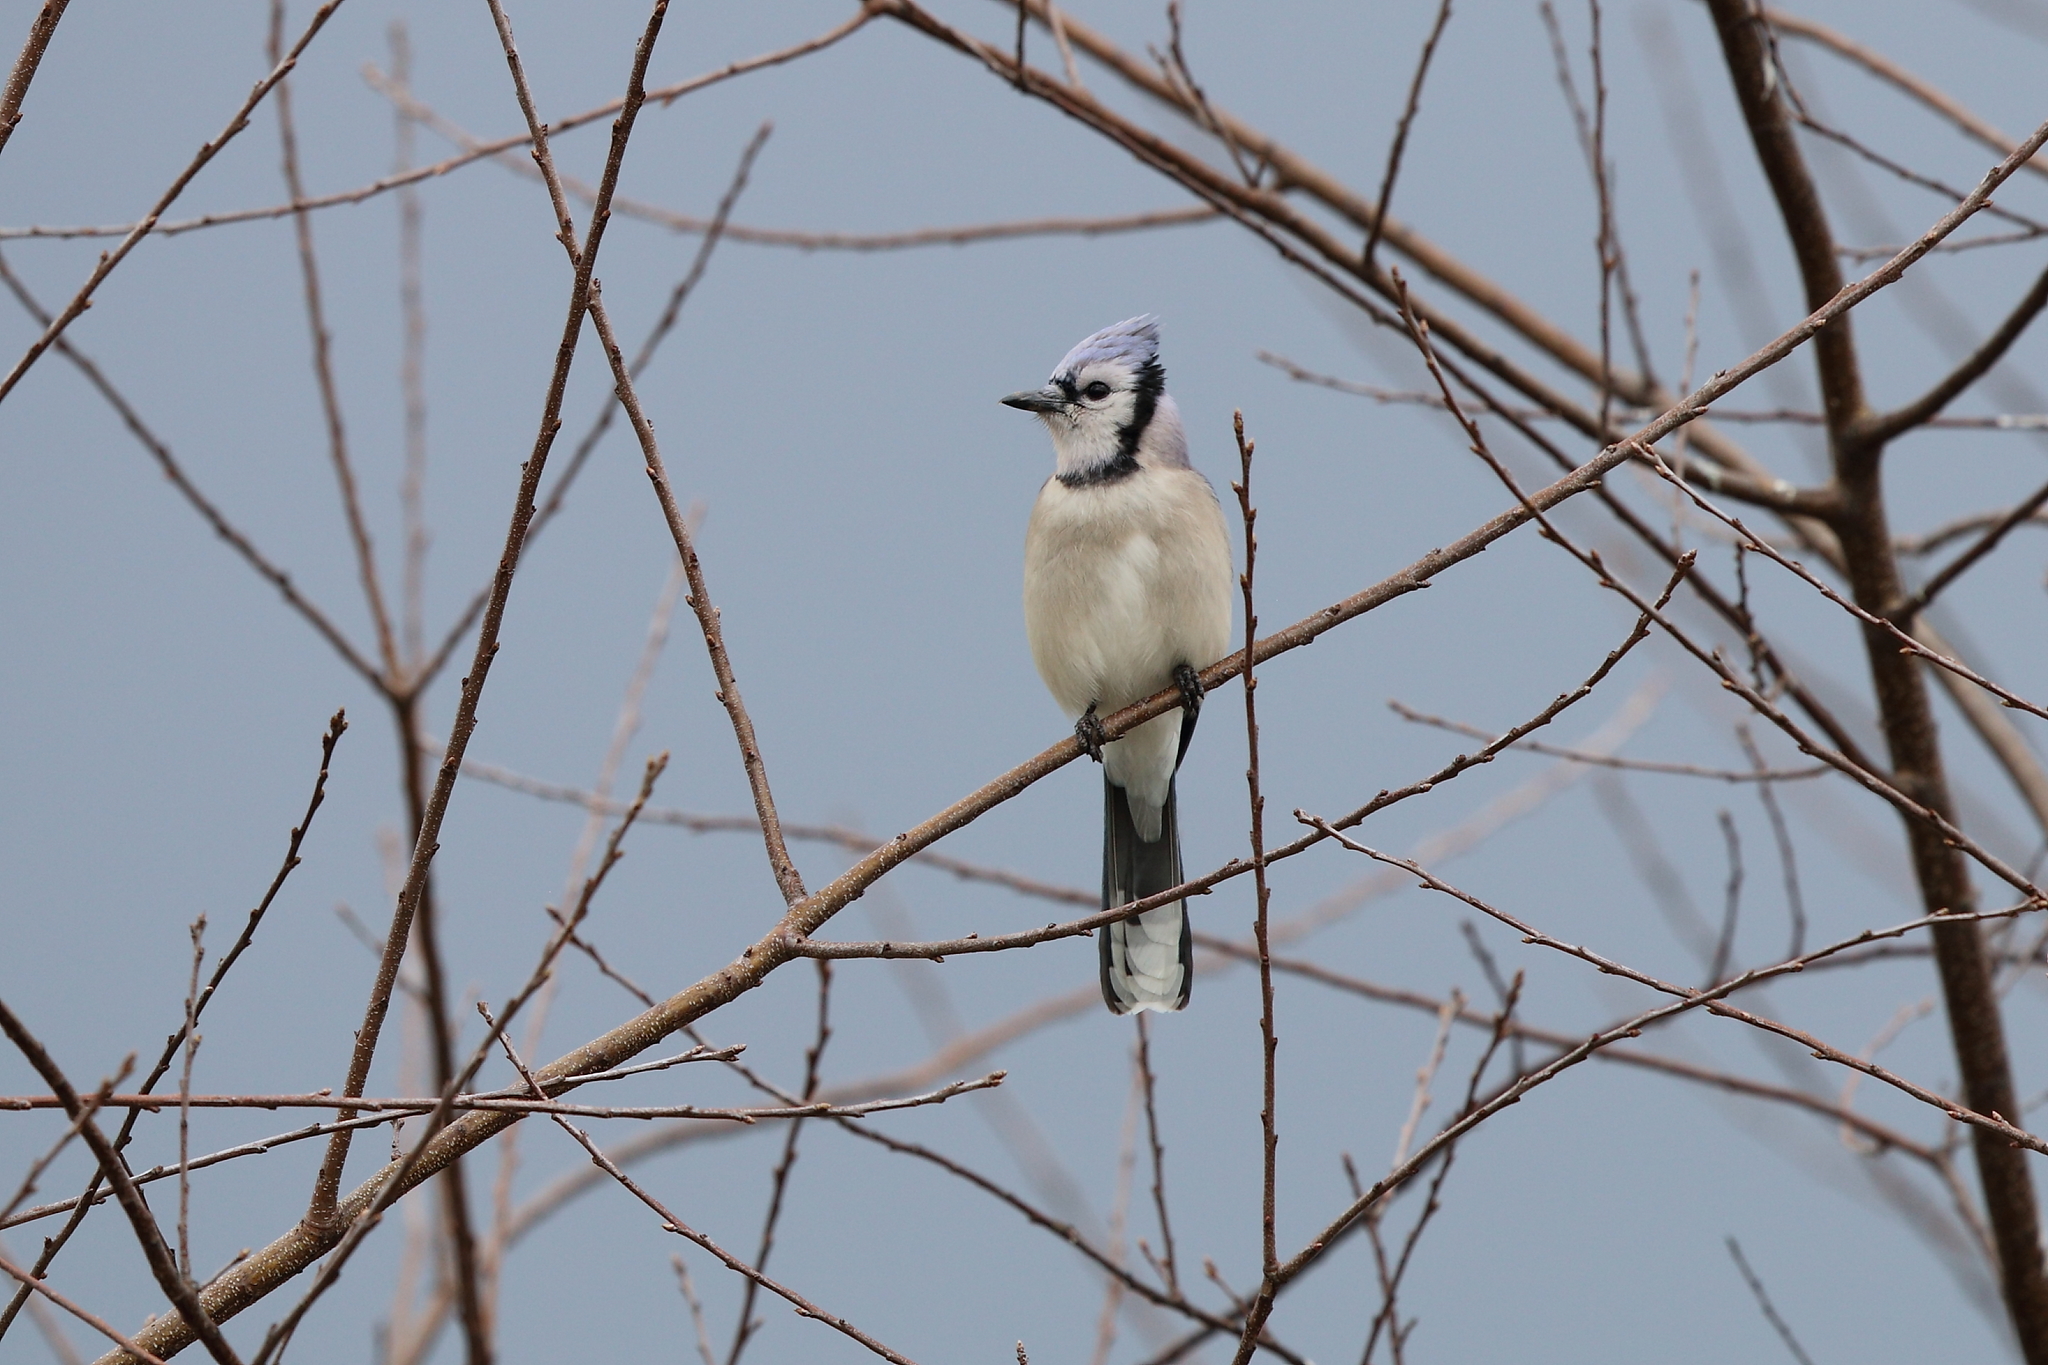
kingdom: Animalia
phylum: Chordata
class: Aves
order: Passeriformes
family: Corvidae
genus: Cyanocitta
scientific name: Cyanocitta cristata
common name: Blue jay
